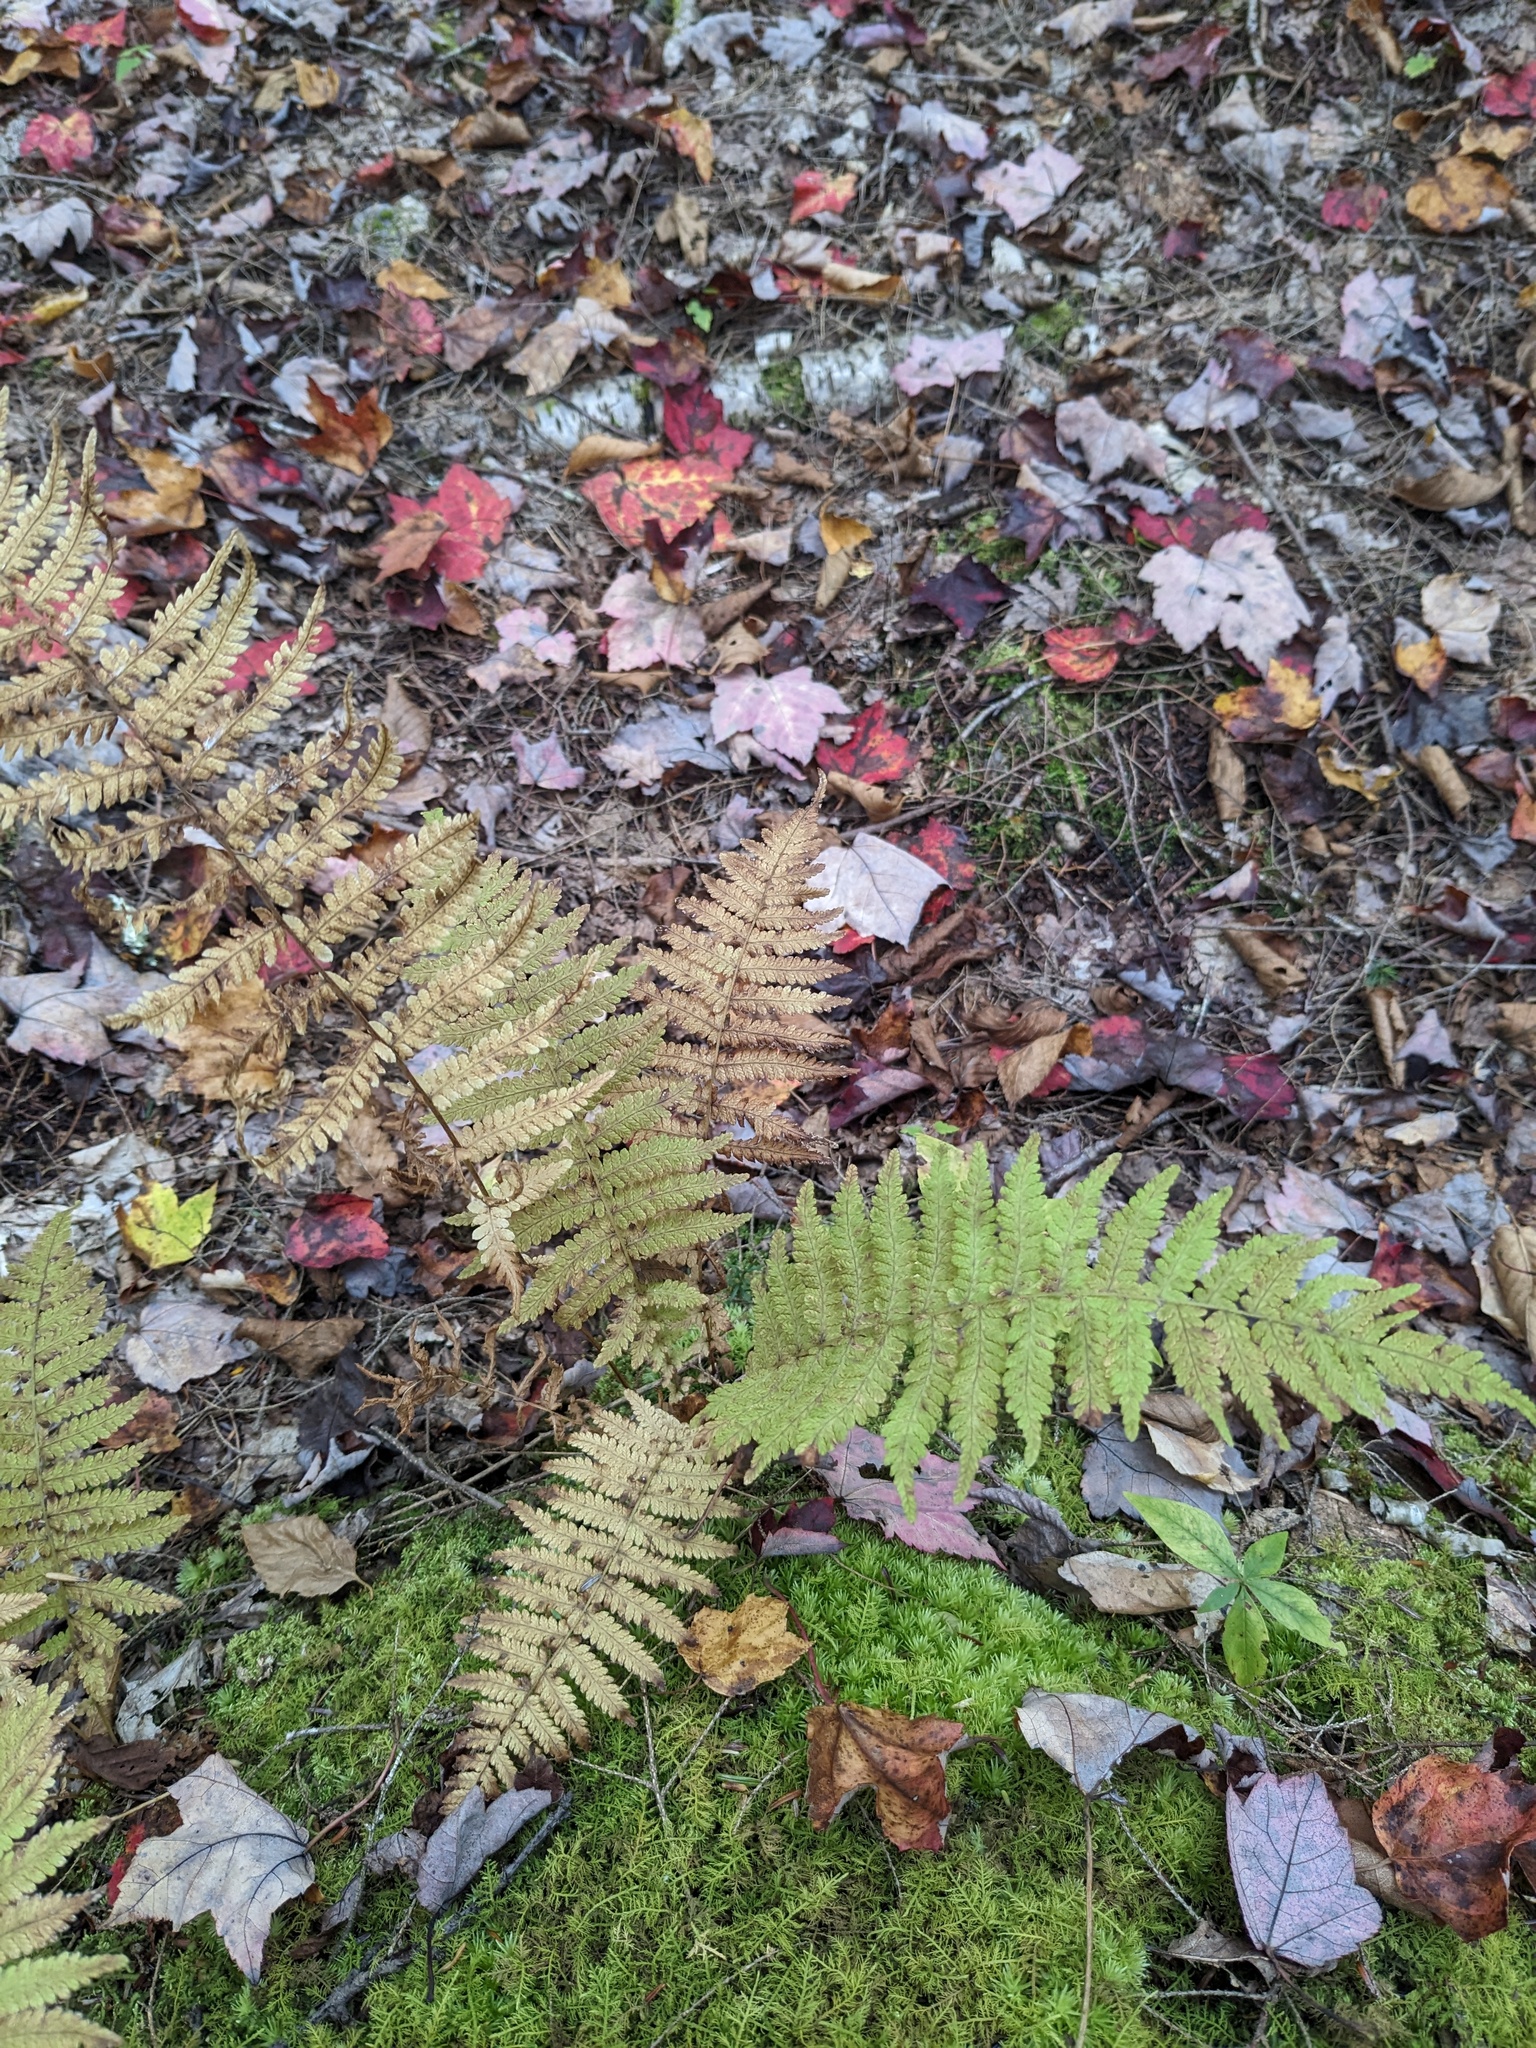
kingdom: Plantae
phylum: Tracheophyta
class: Polypodiopsida
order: Polypodiales
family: Thelypteridaceae
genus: Amauropelta
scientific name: Amauropelta noveboracensis
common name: New york fern
